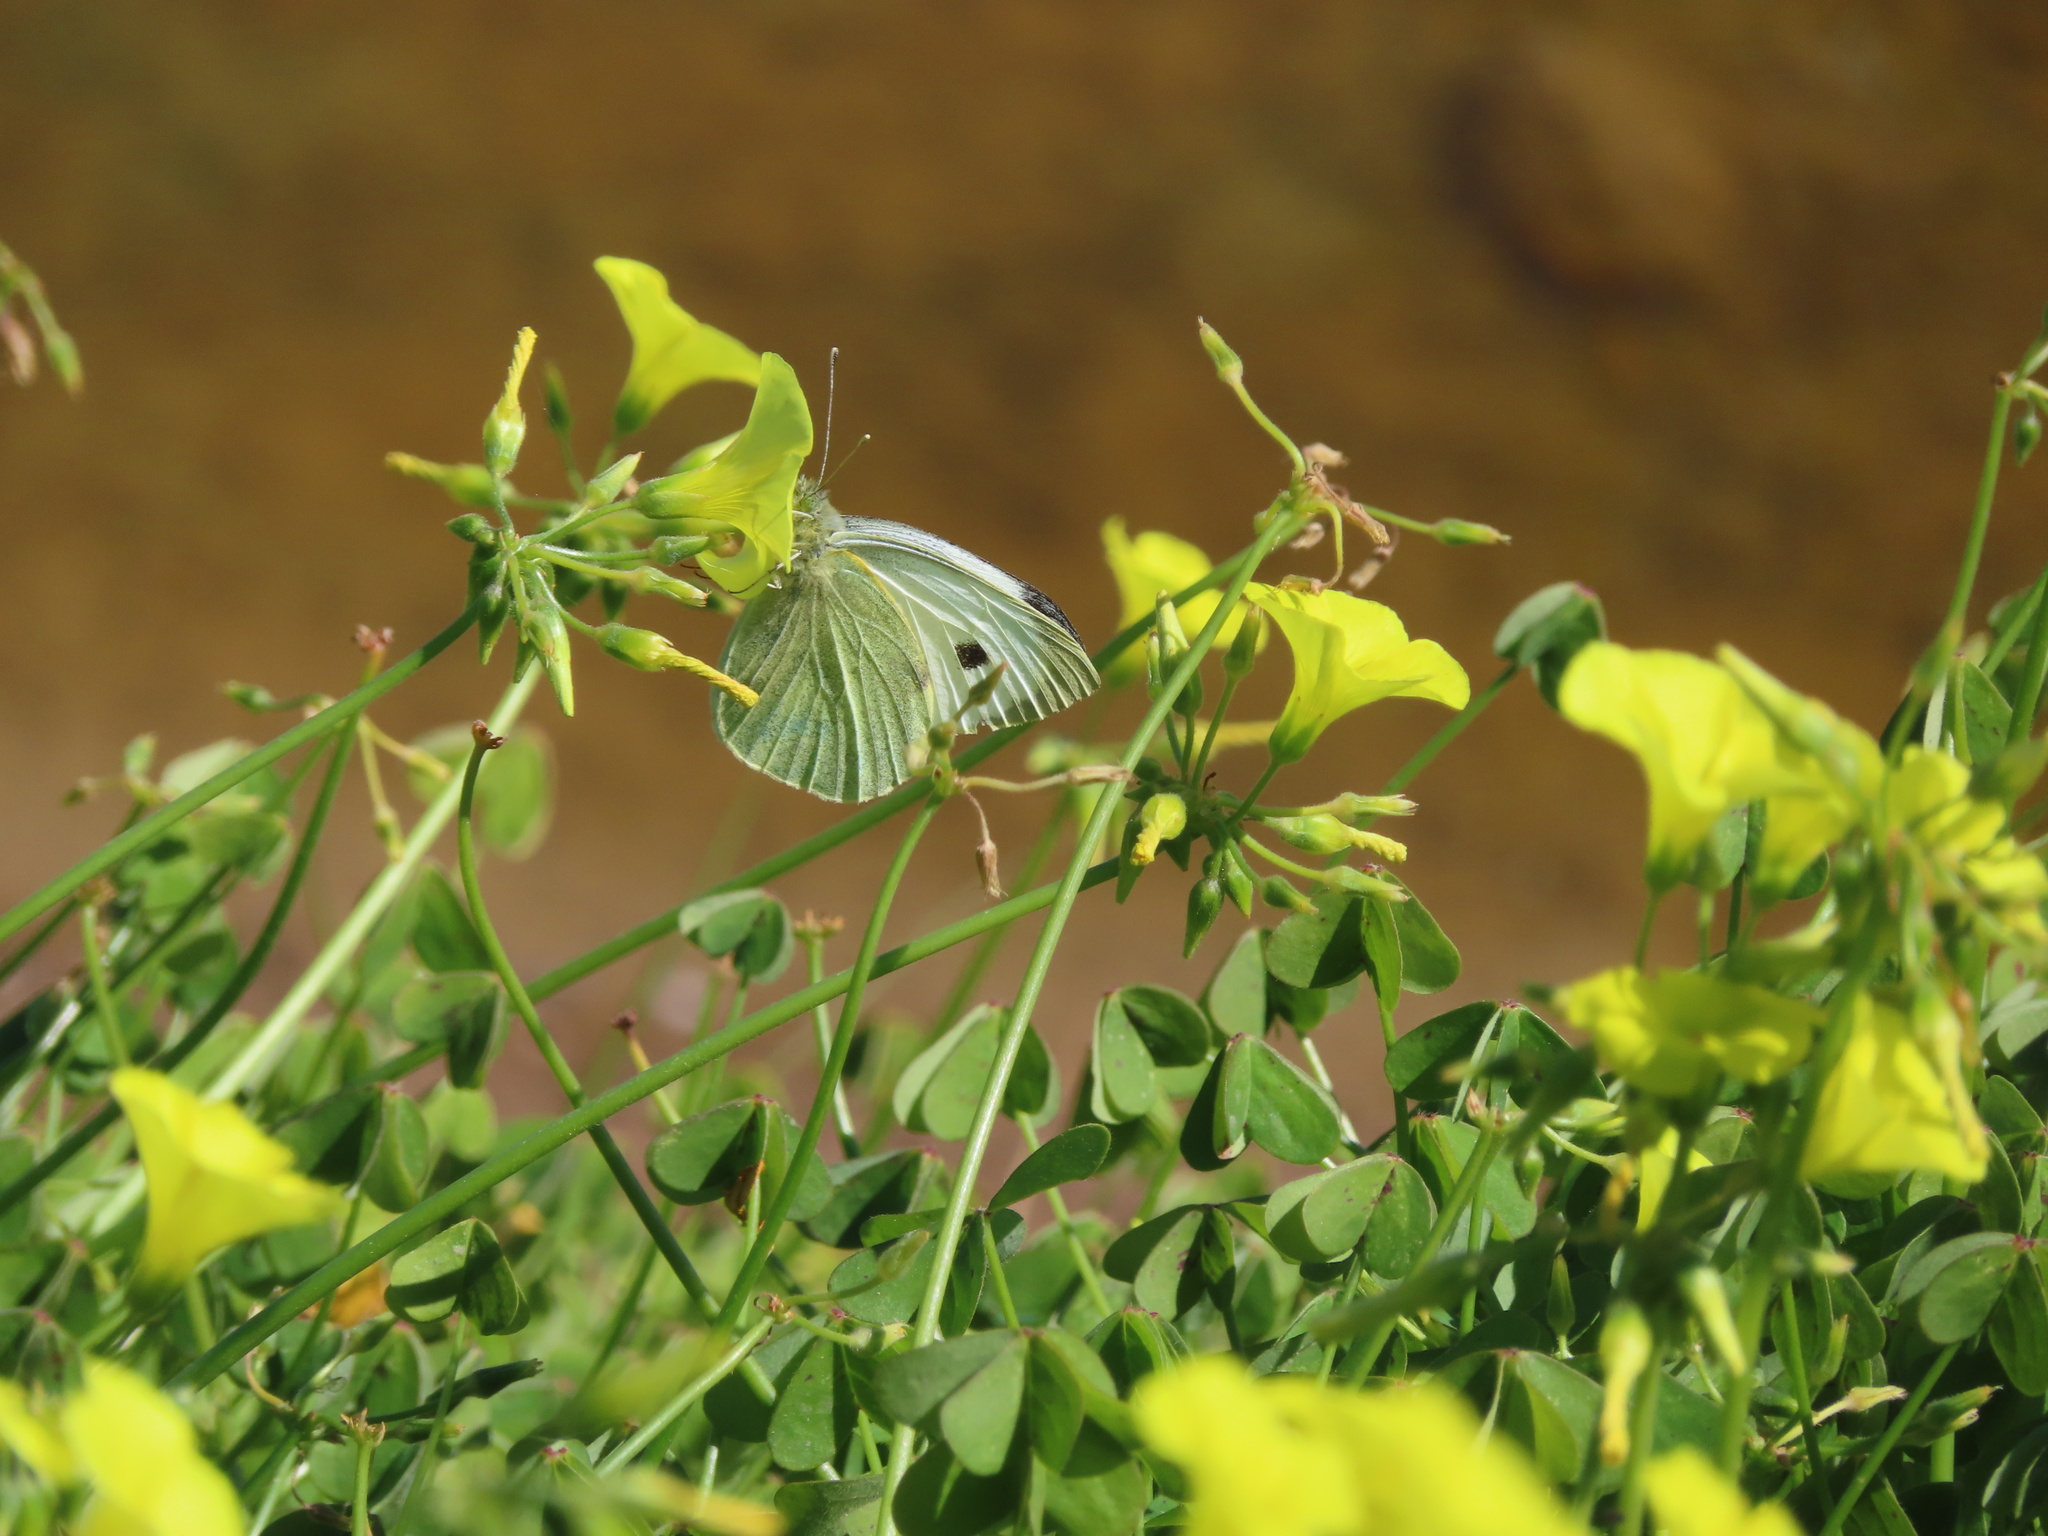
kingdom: Animalia
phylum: Arthropoda
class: Insecta
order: Lepidoptera
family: Pieridae
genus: Pieris
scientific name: Pieris brassicae
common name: Large white
